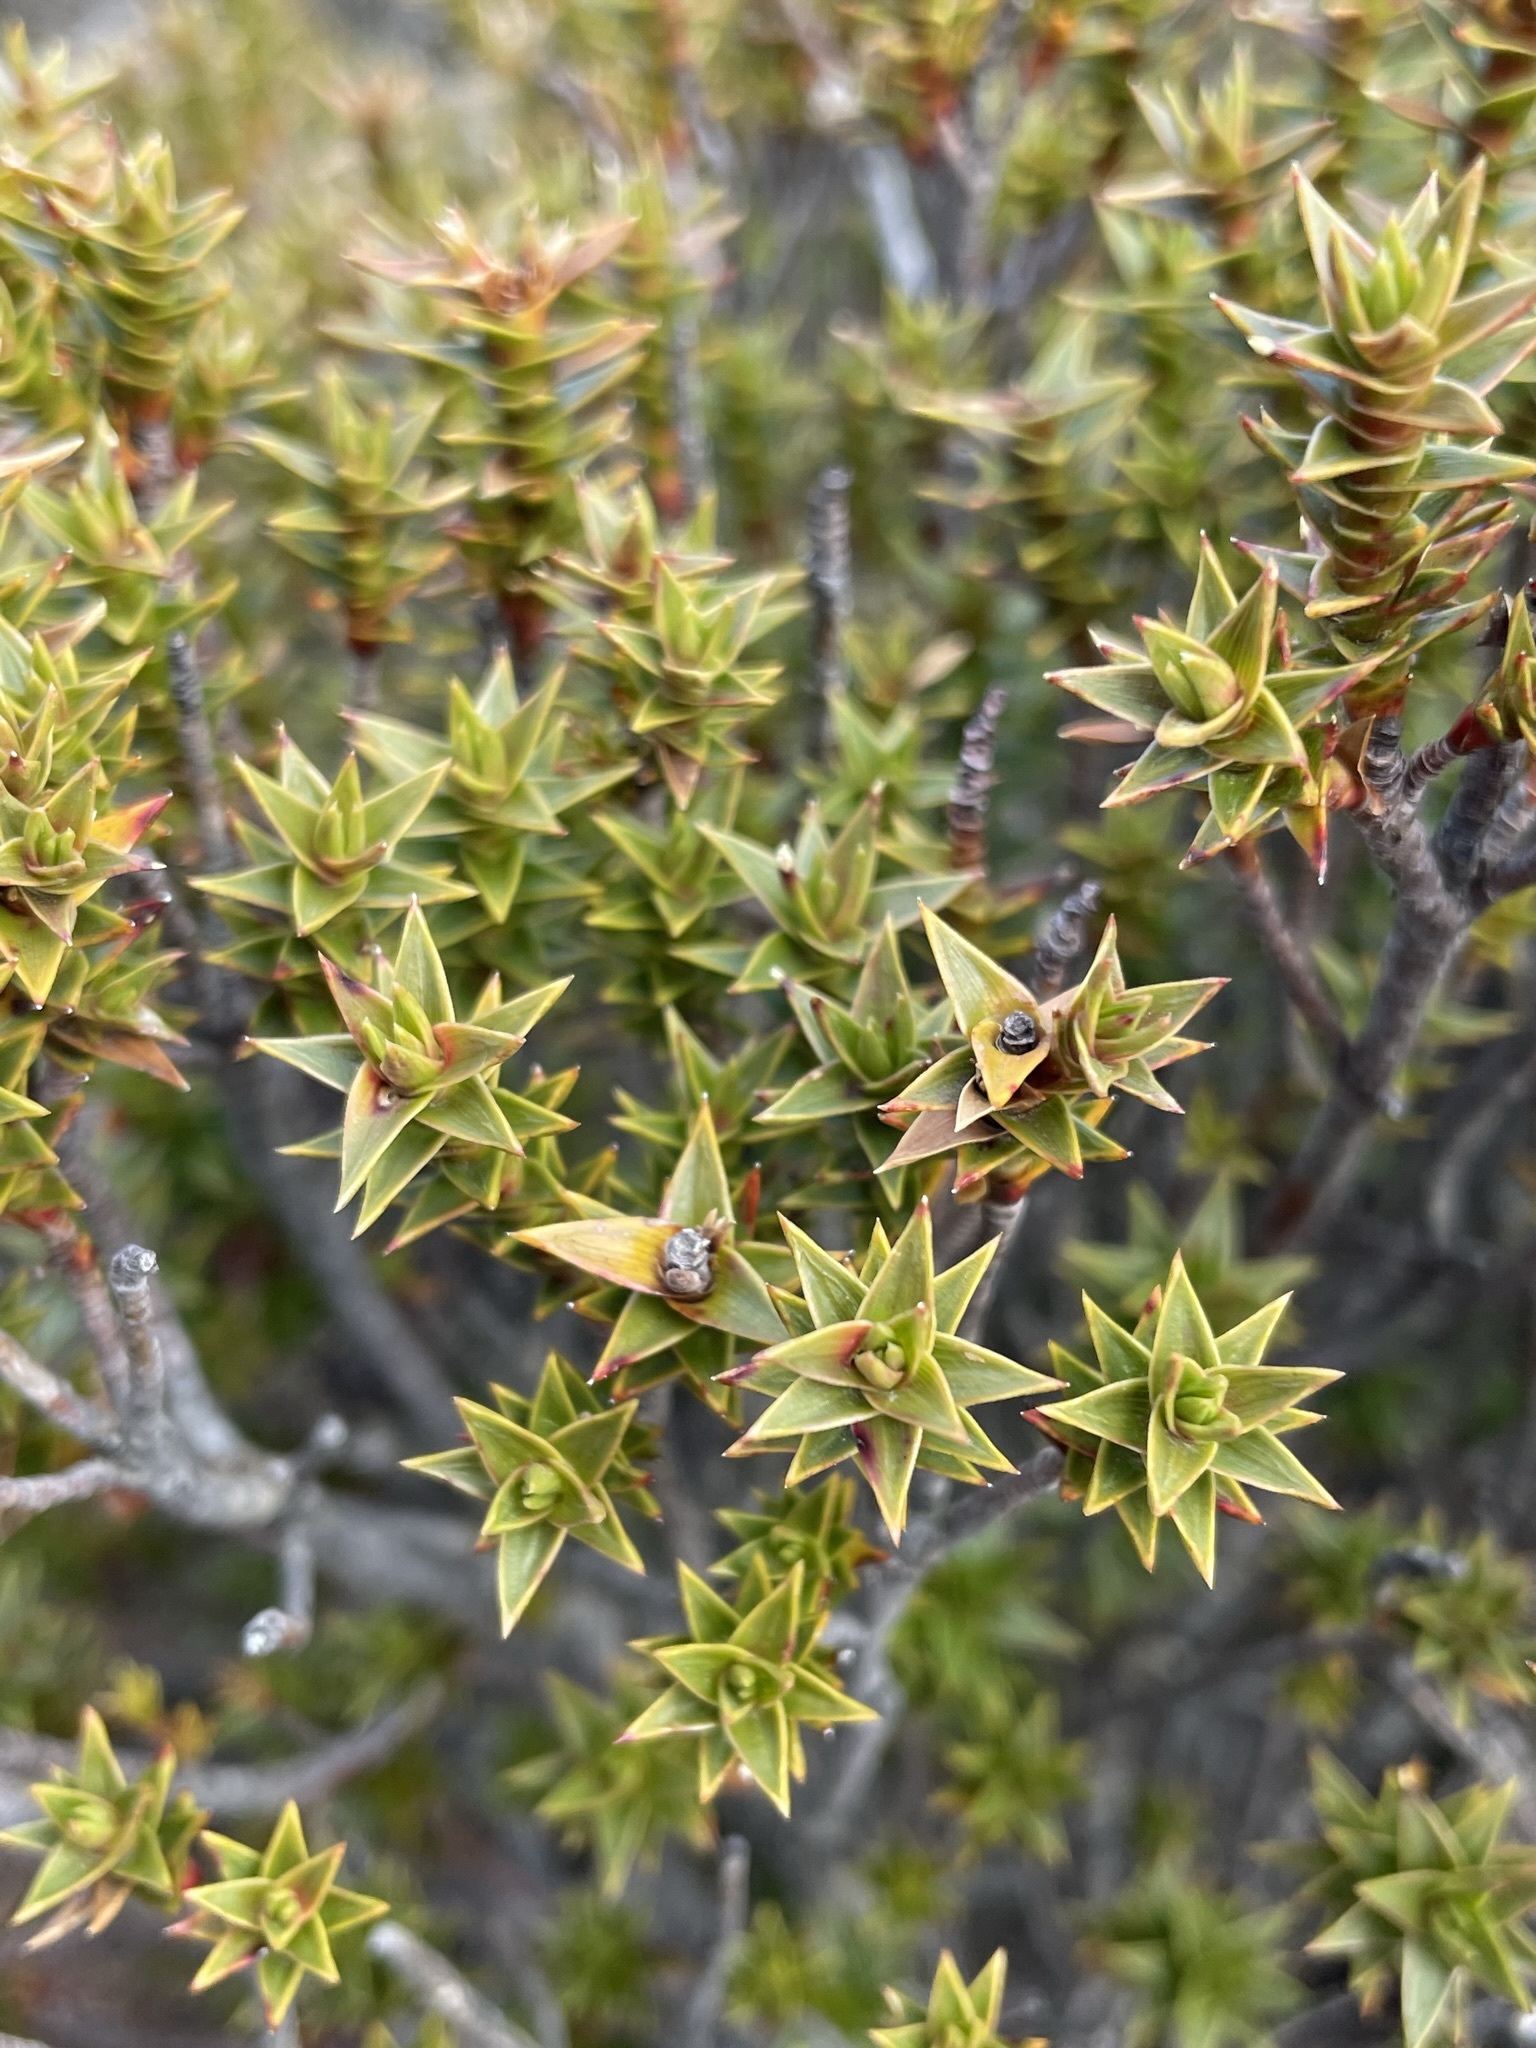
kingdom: Plantae
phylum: Tracheophyta
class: Magnoliopsida
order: Ericales
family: Ericaceae
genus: Dracophyllum
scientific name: Dracophyllum sprengelioides
